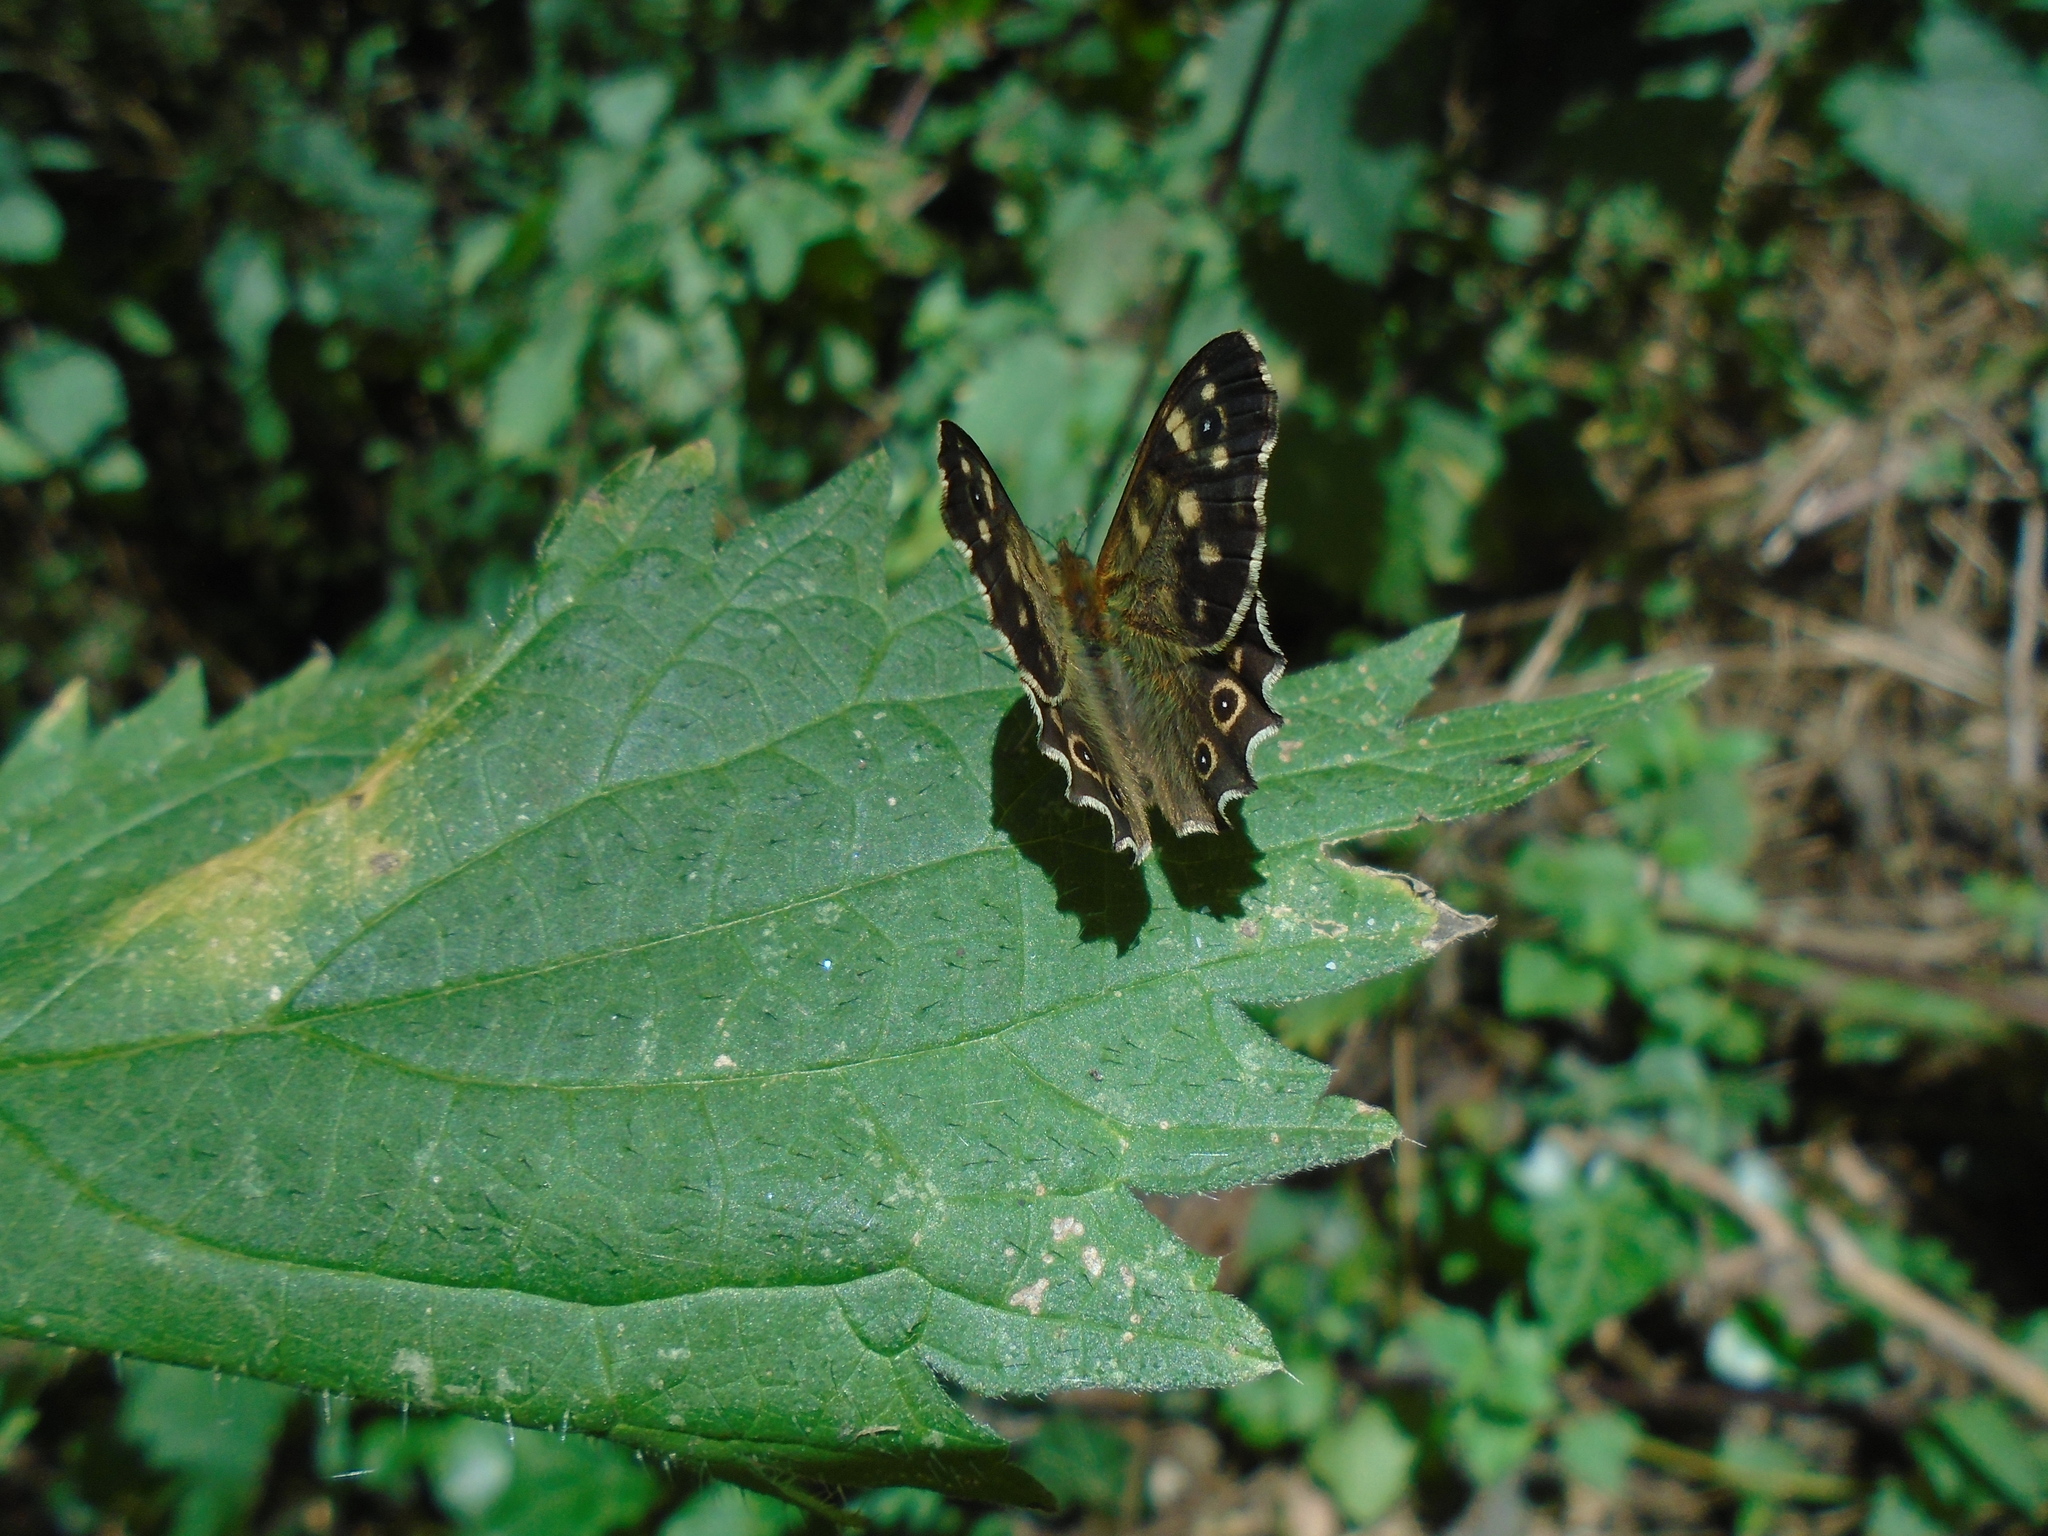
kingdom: Animalia
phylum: Arthropoda
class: Insecta
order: Lepidoptera
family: Nymphalidae
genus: Pararge
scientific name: Pararge aegeria
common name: Speckled wood
